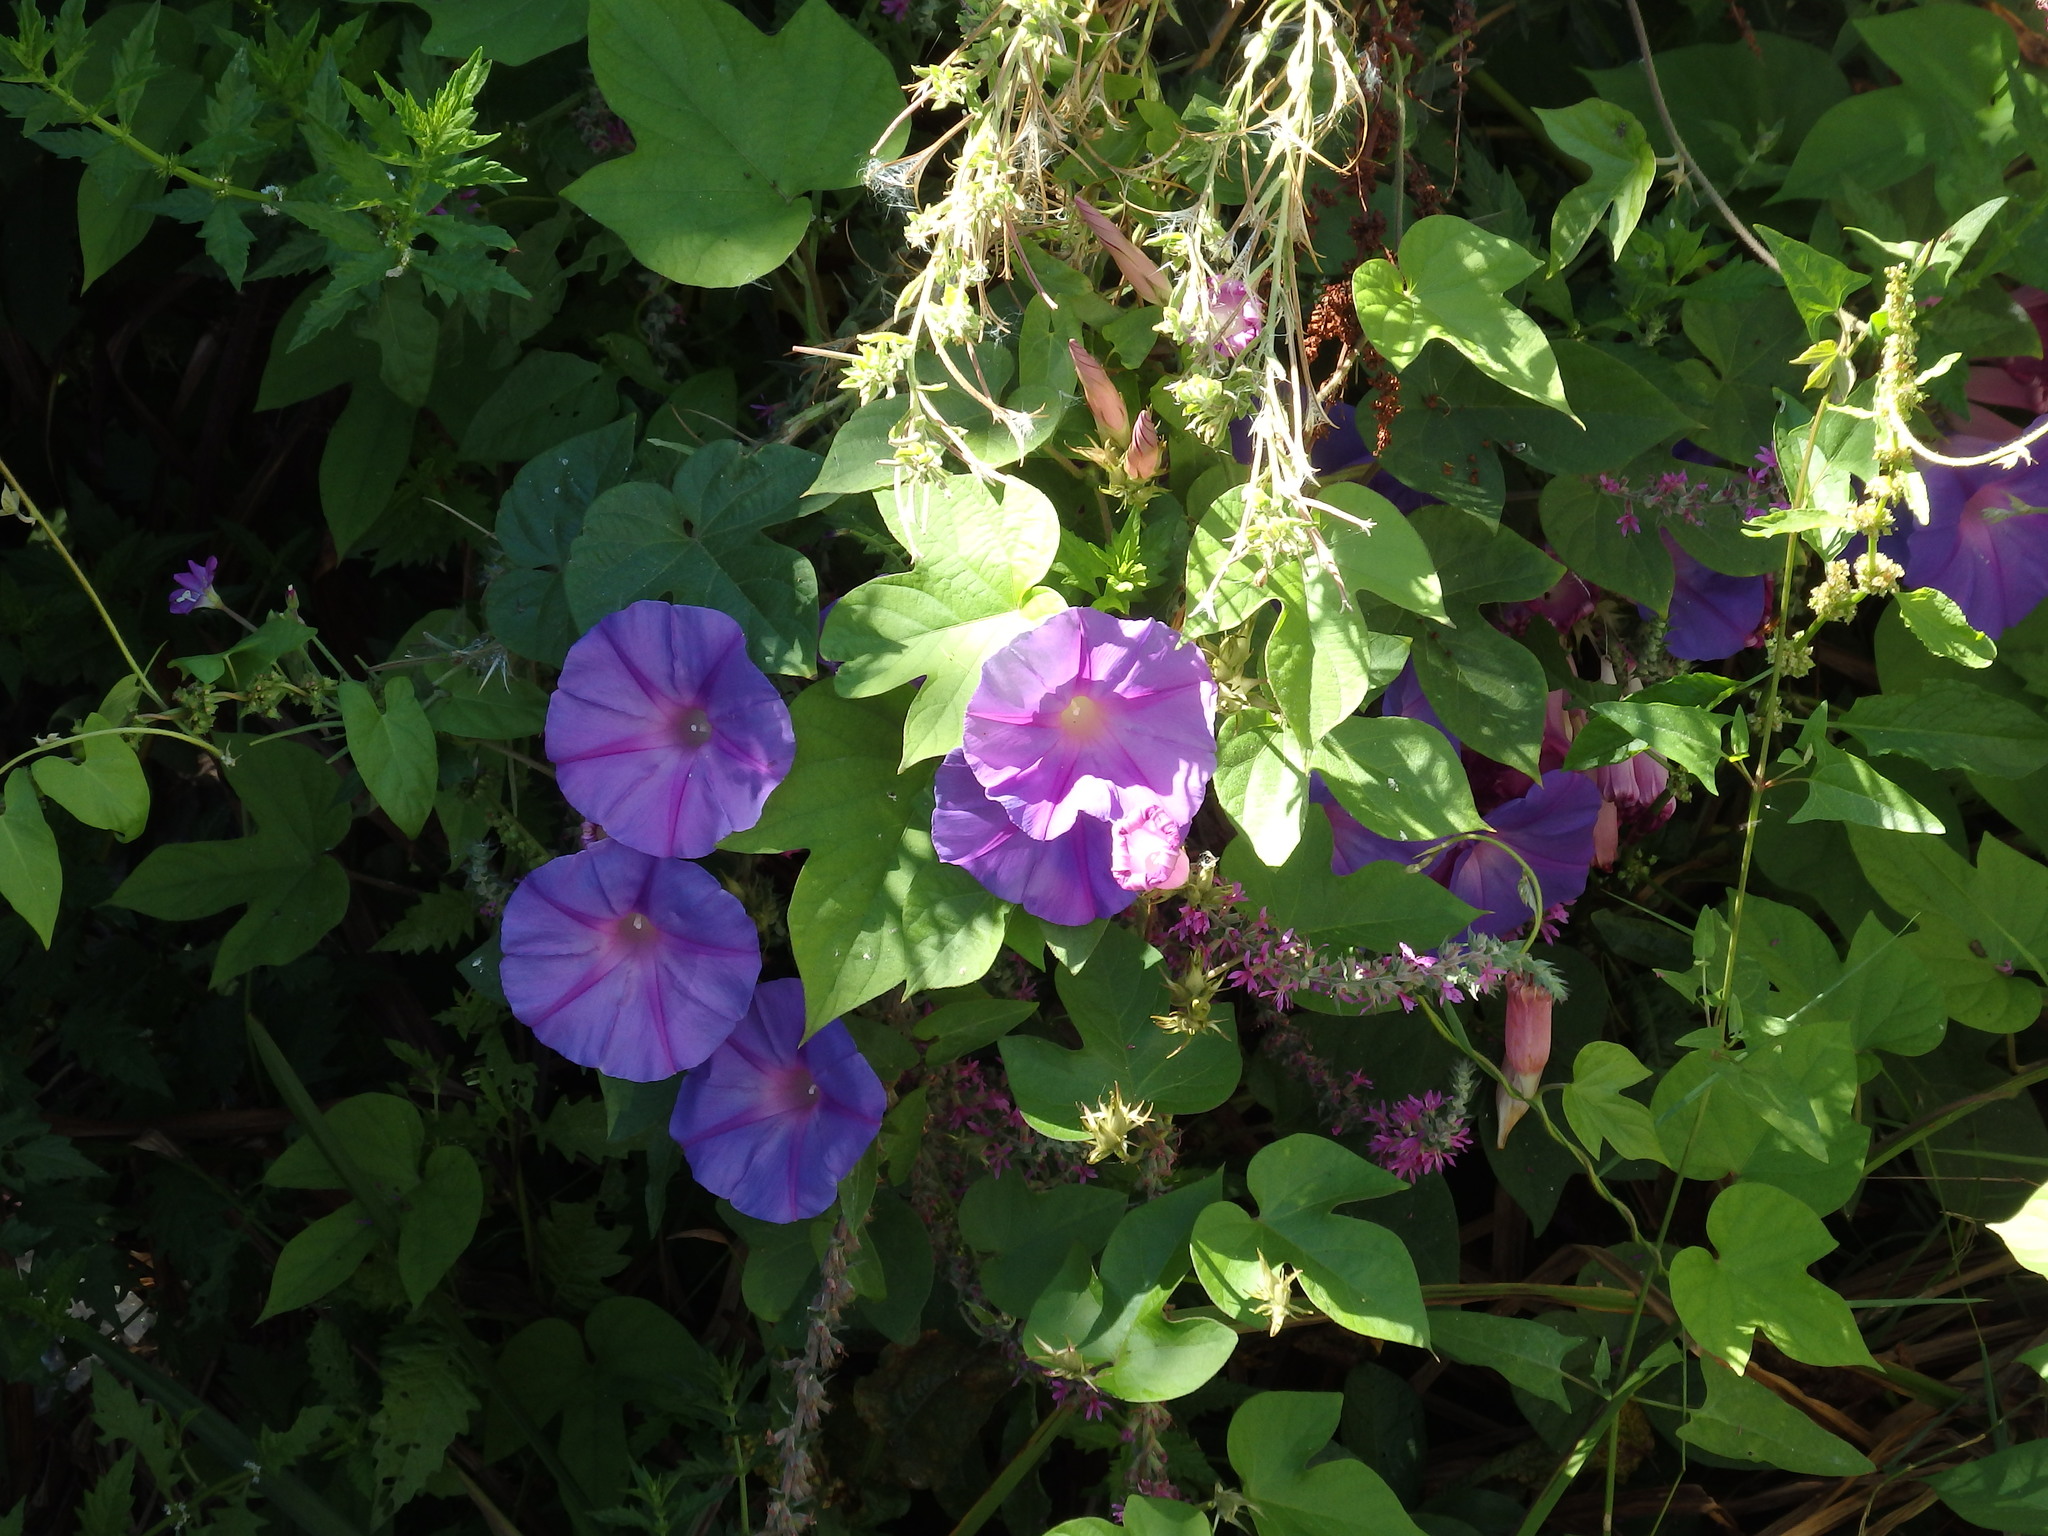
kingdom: Plantae
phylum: Tracheophyta
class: Magnoliopsida
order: Solanales
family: Convolvulaceae
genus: Ipomoea
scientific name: Ipomoea indica
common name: Blue dawnflower
